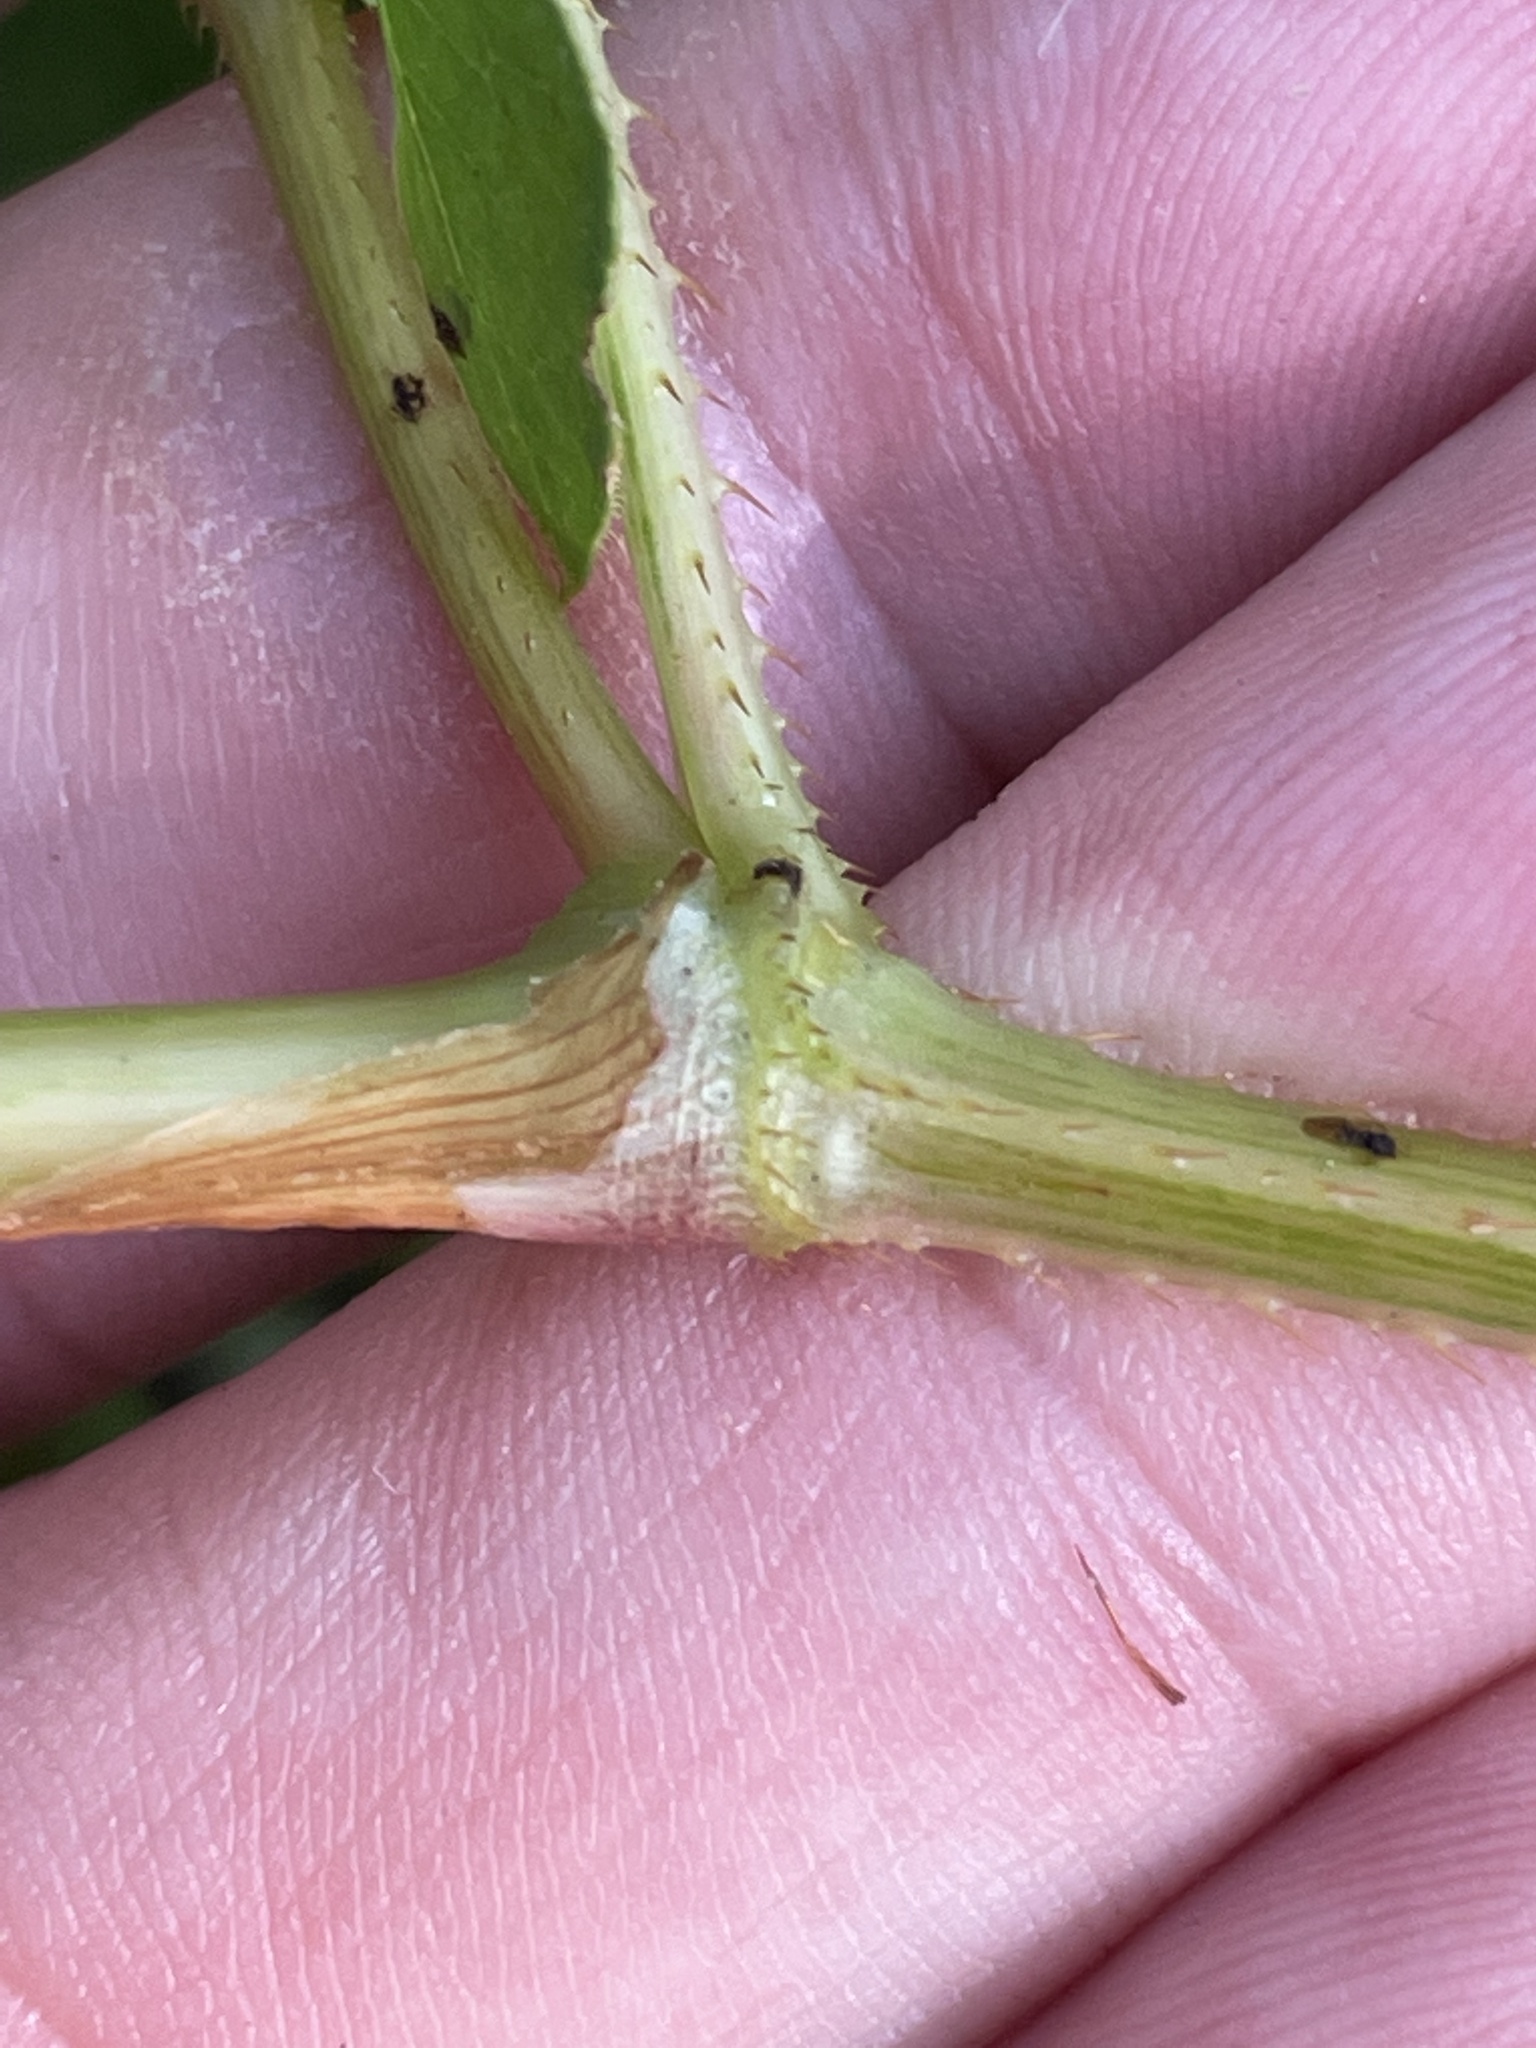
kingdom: Plantae
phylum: Tracheophyta
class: Magnoliopsida
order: Caryophyllales
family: Polygonaceae
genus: Persicaria
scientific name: Persicaria sagittata
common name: American tearthumb
